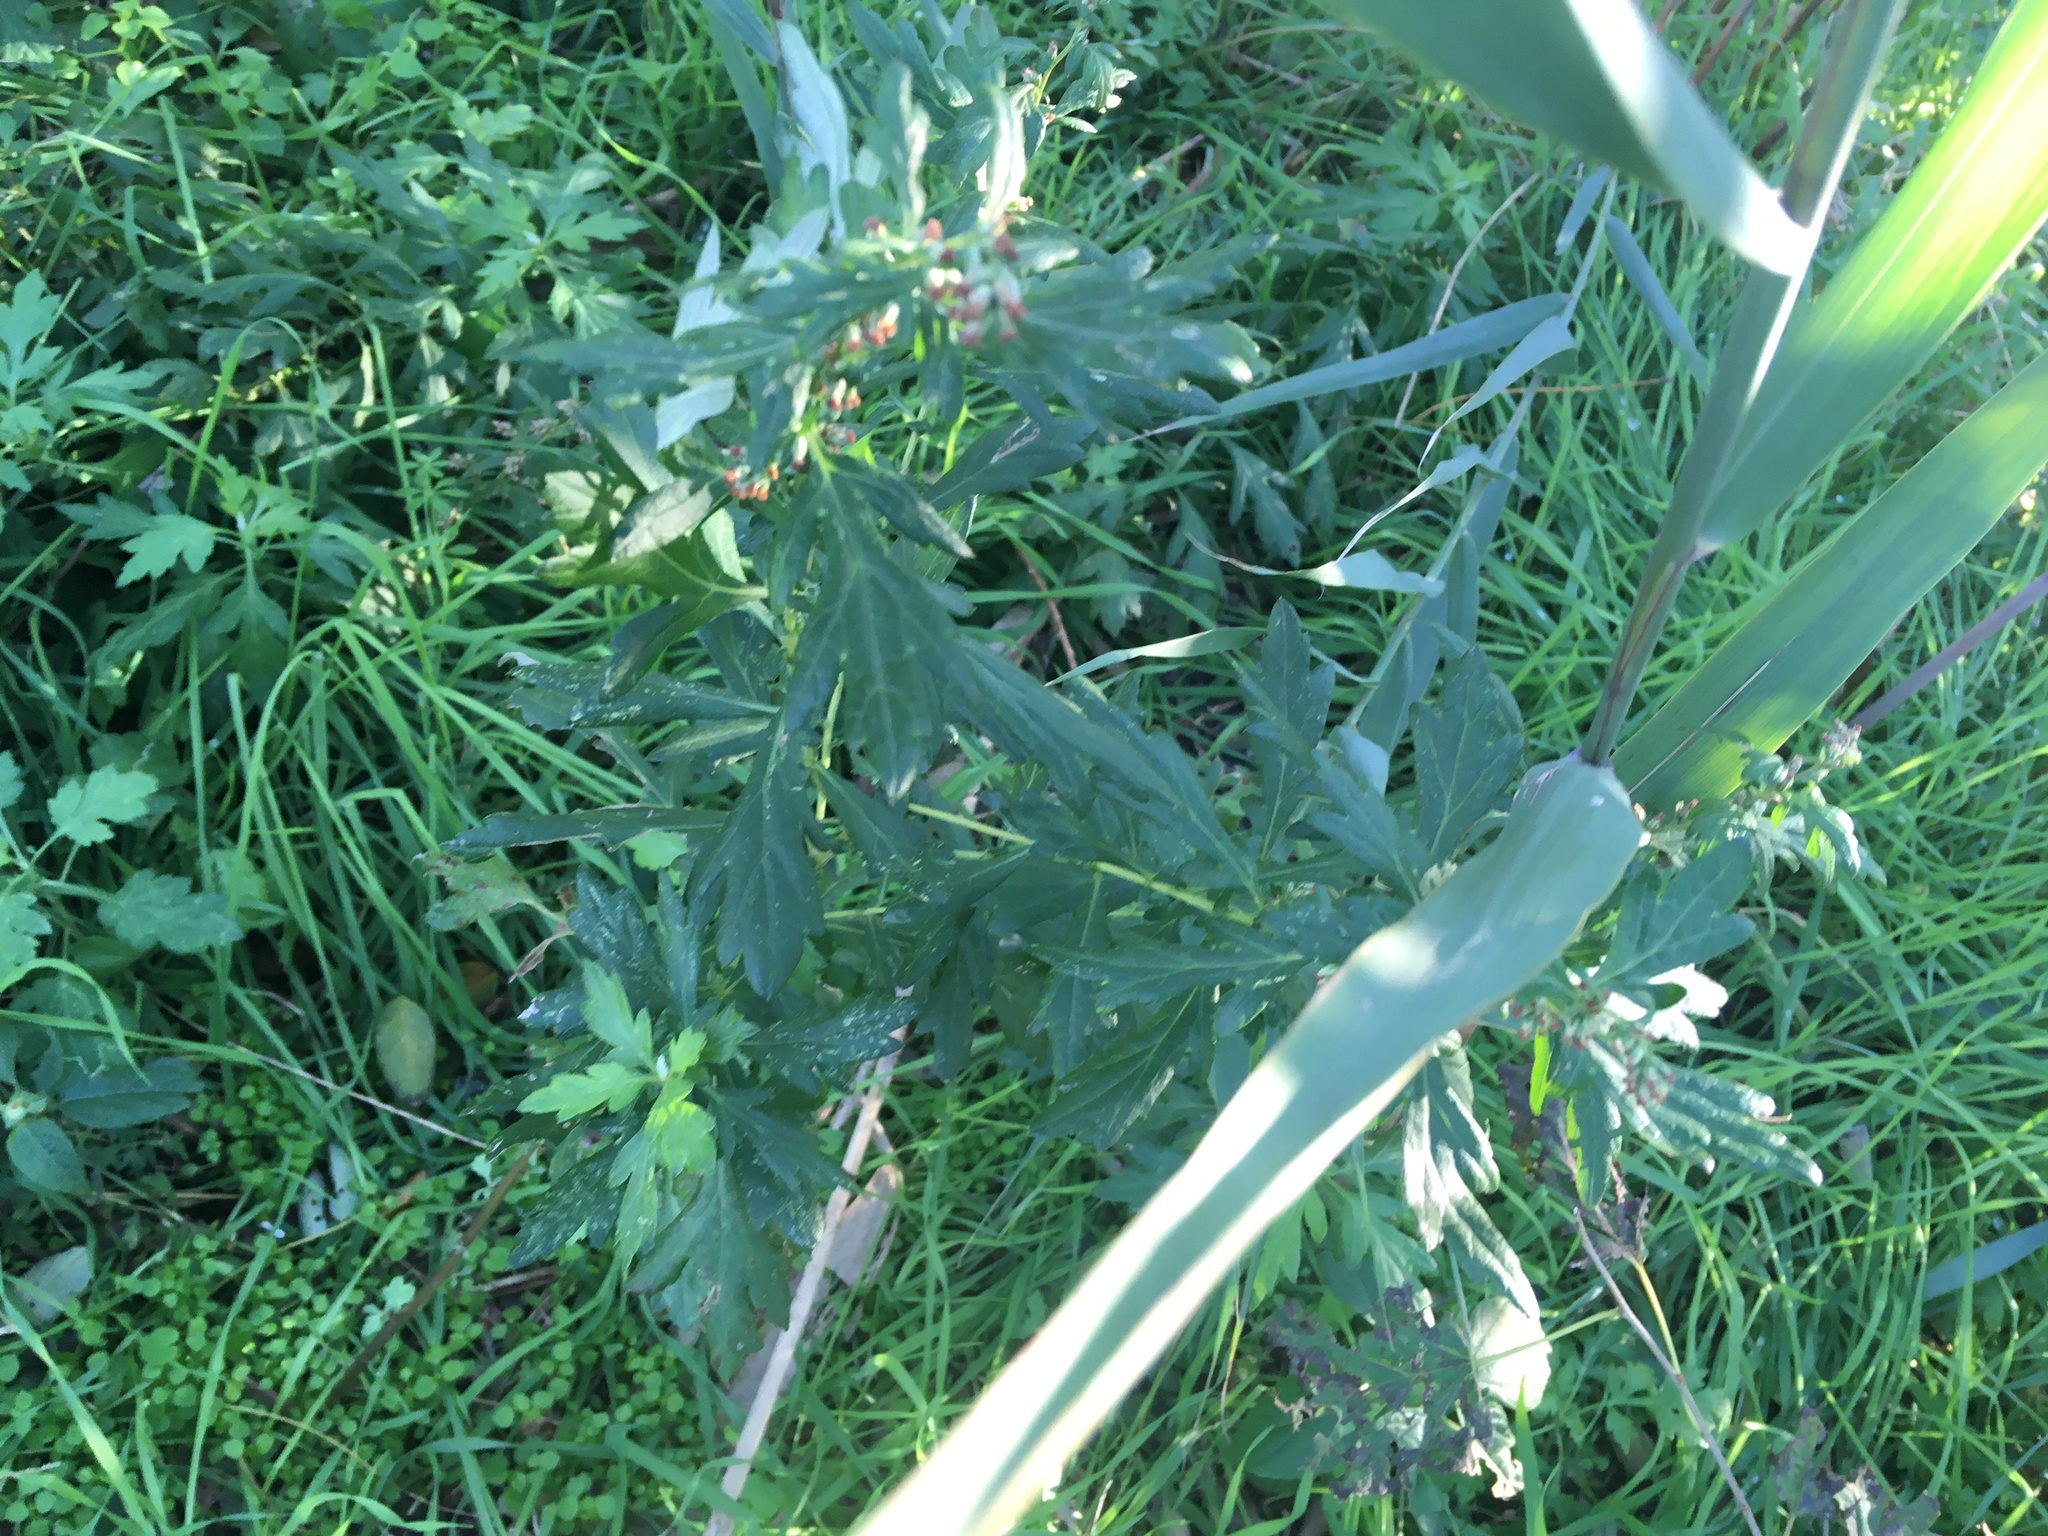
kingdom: Plantae
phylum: Tracheophyta
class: Magnoliopsida
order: Asterales
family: Asteraceae
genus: Artemisia
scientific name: Artemisia vulgaris
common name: Mugwort
